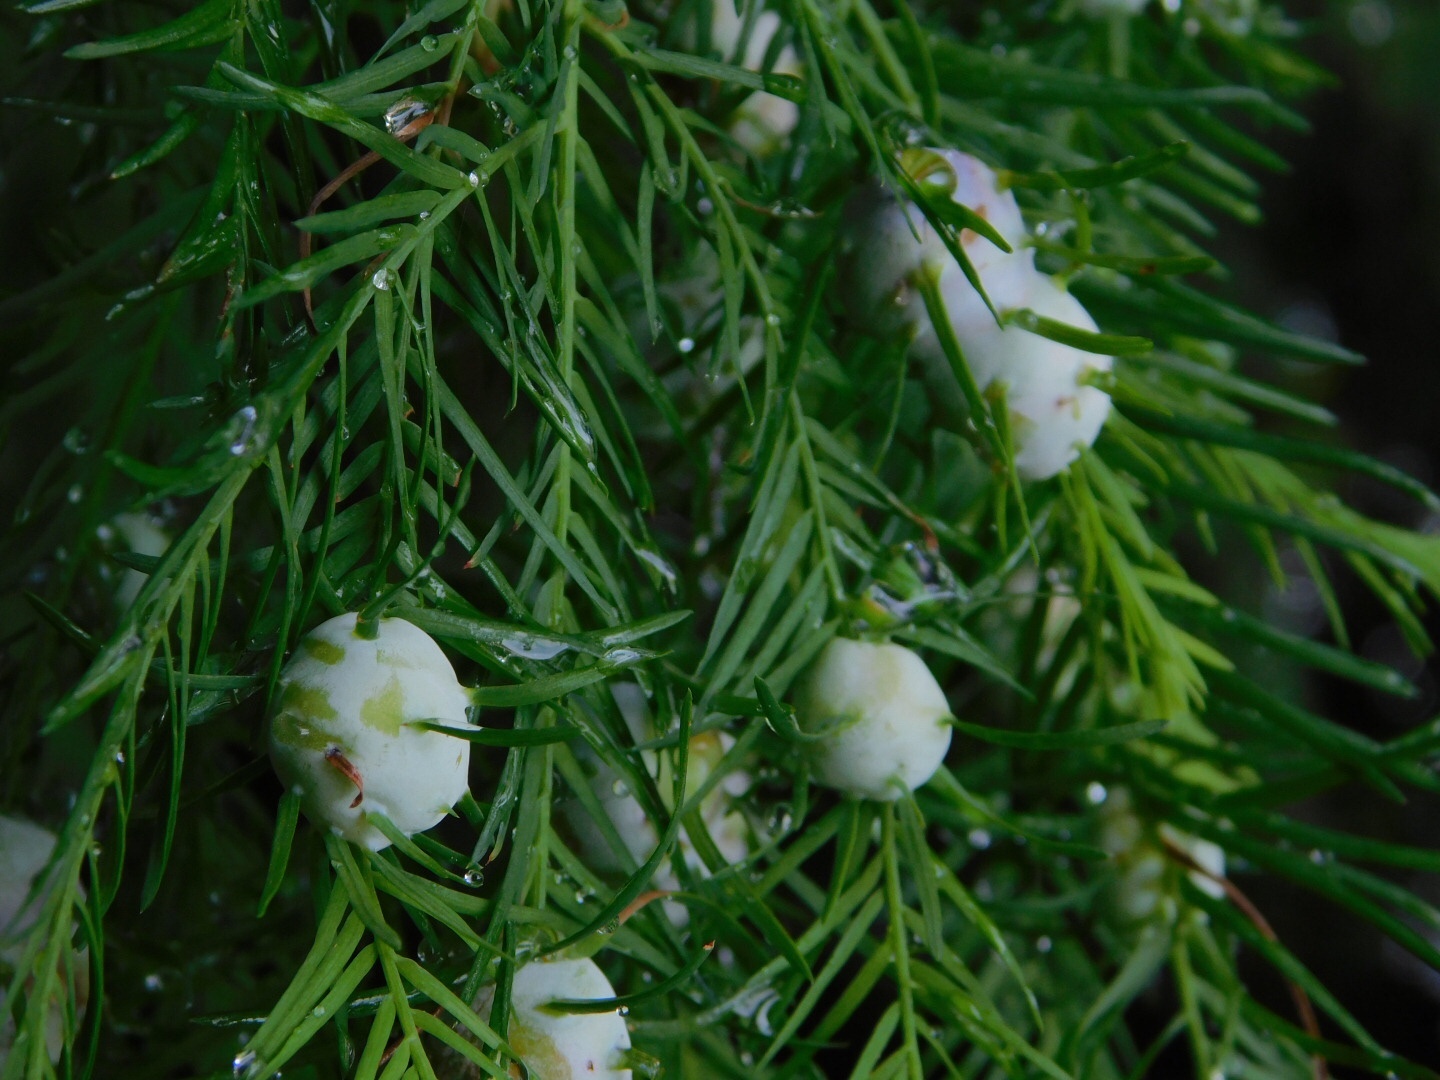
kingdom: Animalia
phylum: Arthropoda
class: Insecta
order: Diptera
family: Cecidomyiidae
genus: Taxodiomyia
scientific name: Taxodiomyia cupressiananassa
